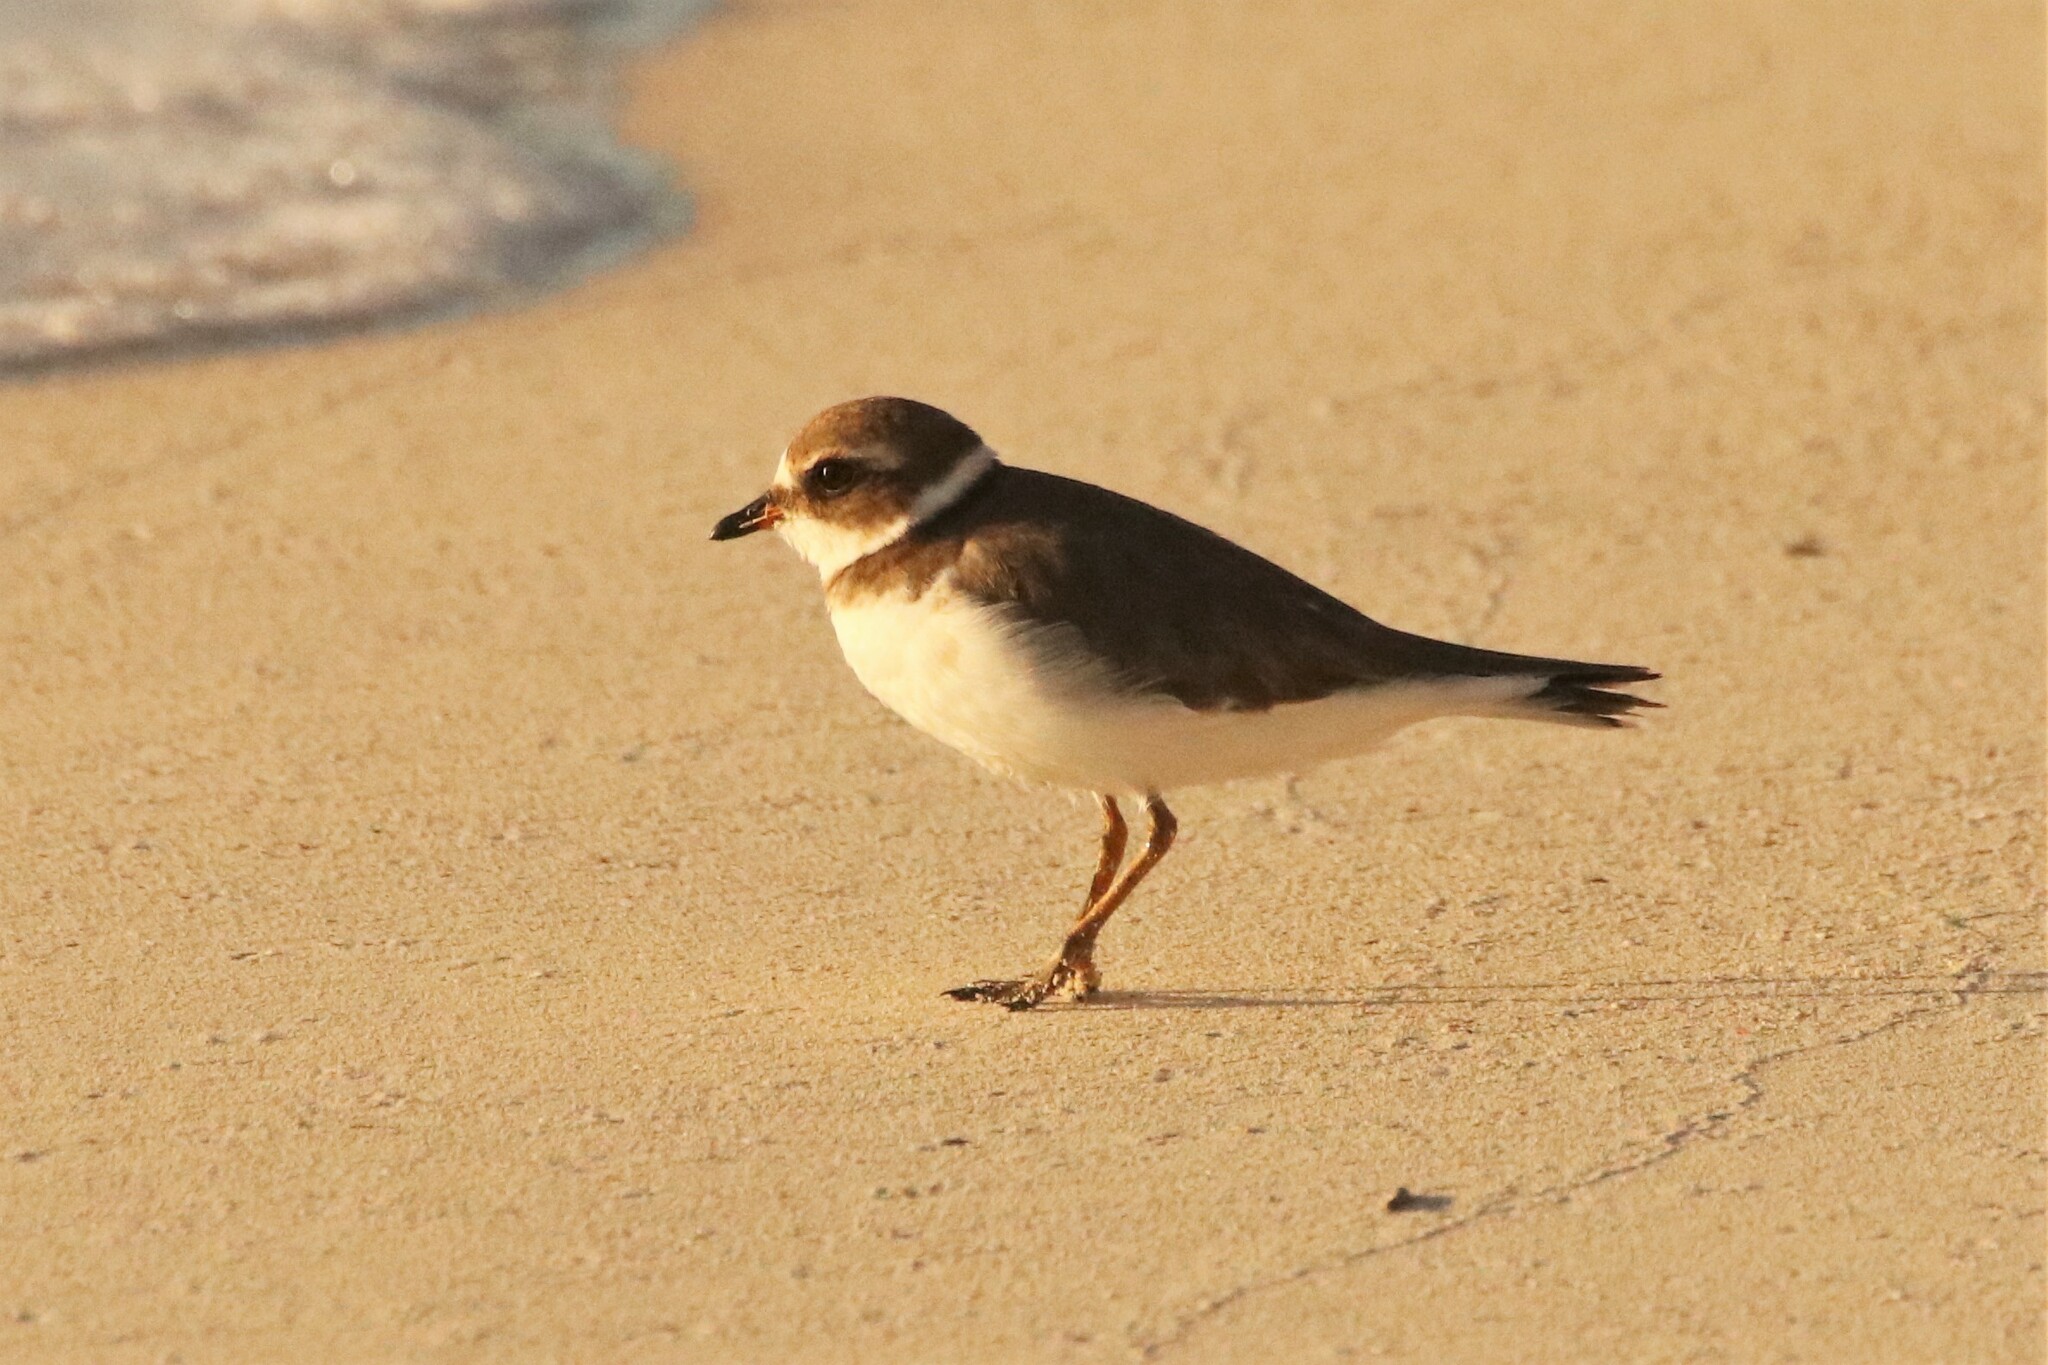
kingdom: Animalia
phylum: Chordata
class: Aves
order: Charadriiformes
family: Charadriidae
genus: Charadrius
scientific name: Charadrius semipalmatus
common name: Semipalmated plover
